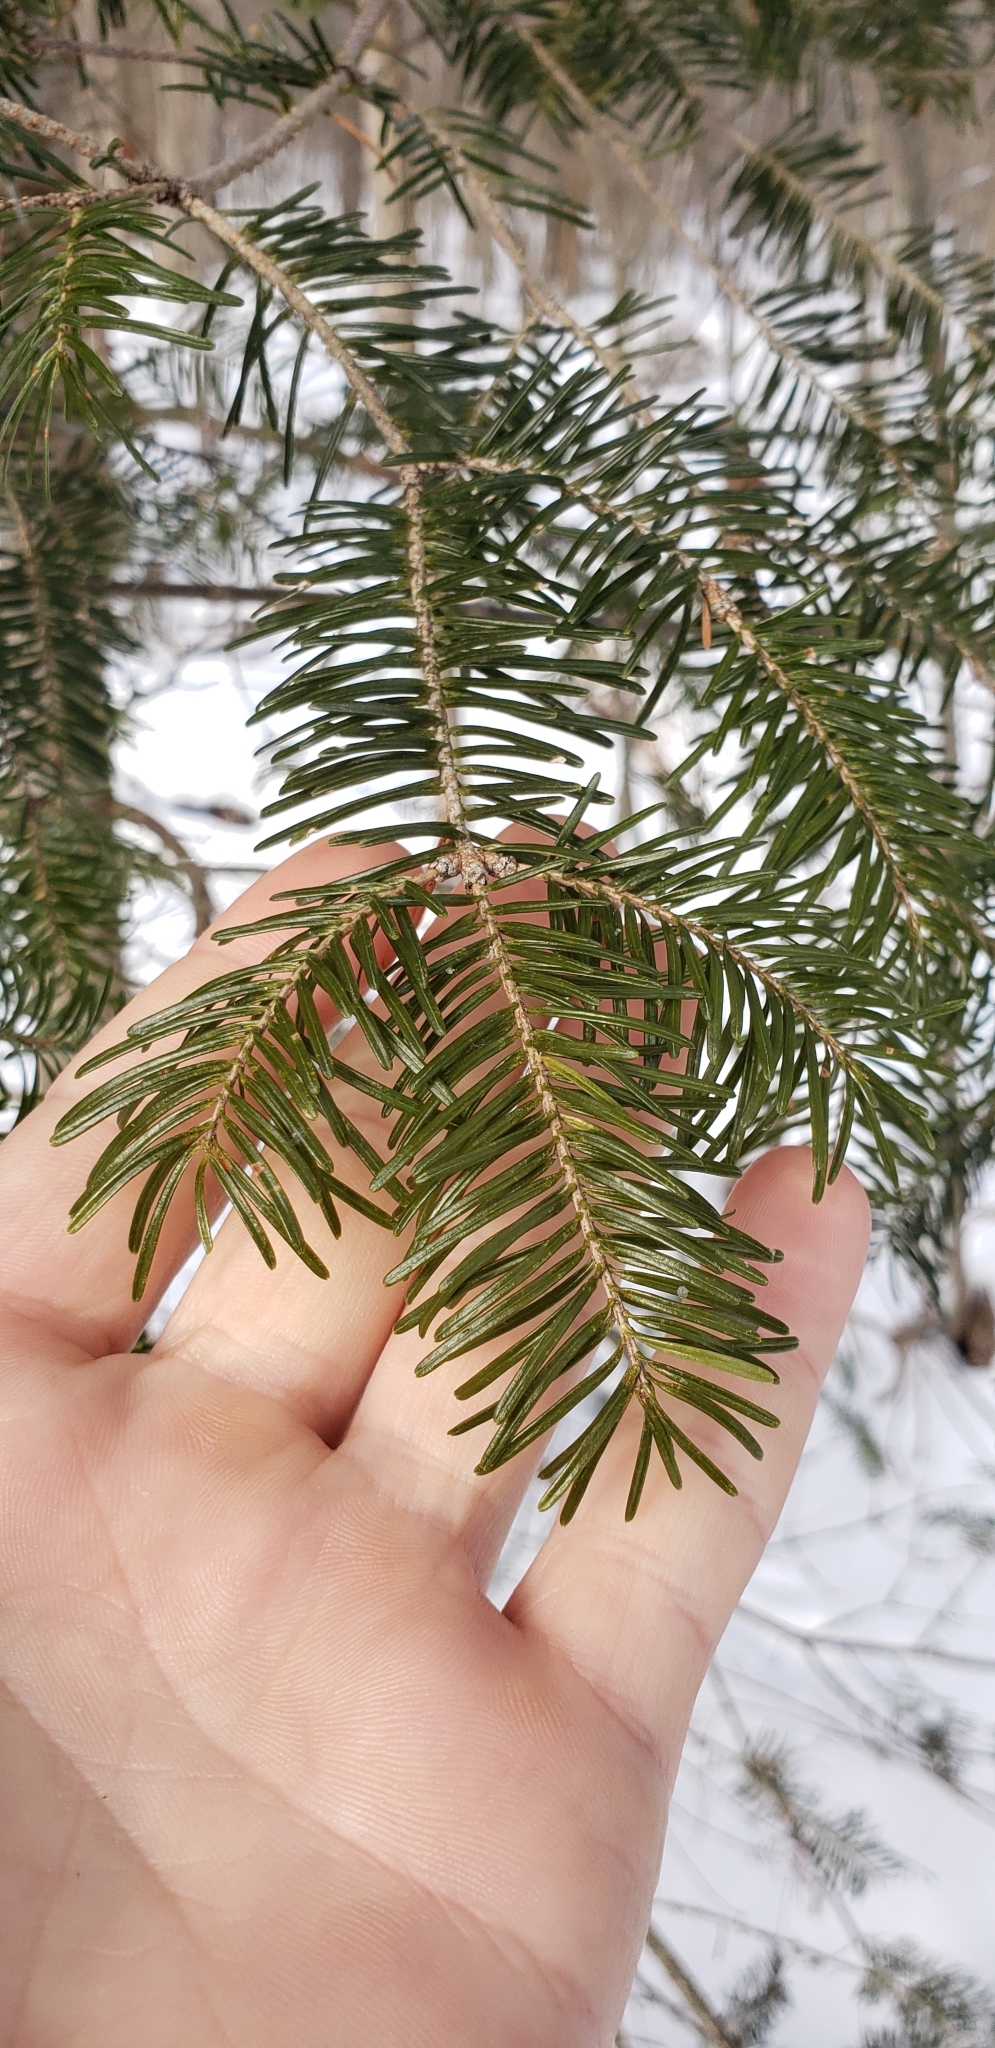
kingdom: Plantae
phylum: Tracheophyta
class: Pinopsida
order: Pinales
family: Pinaceae
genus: Abies
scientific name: Abies balsamea
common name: Balsam fir
